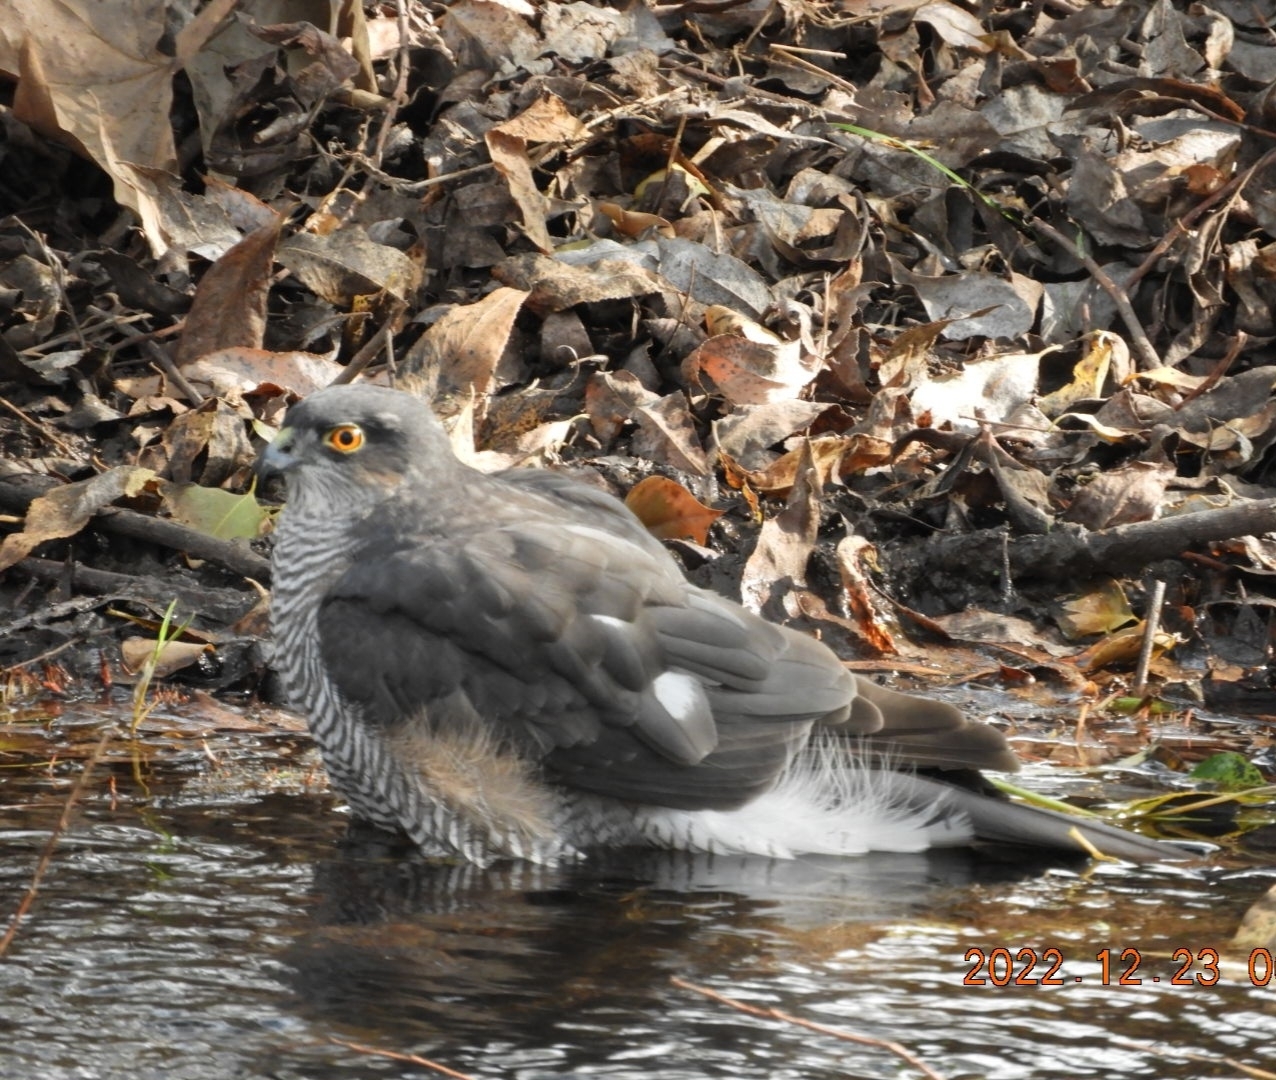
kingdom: Animalia
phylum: Chordata
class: Aves
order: Accipitriformes
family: Accipitridae
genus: Accipiter
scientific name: Accipiter nisus
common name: Eurasian sparrowhawk
